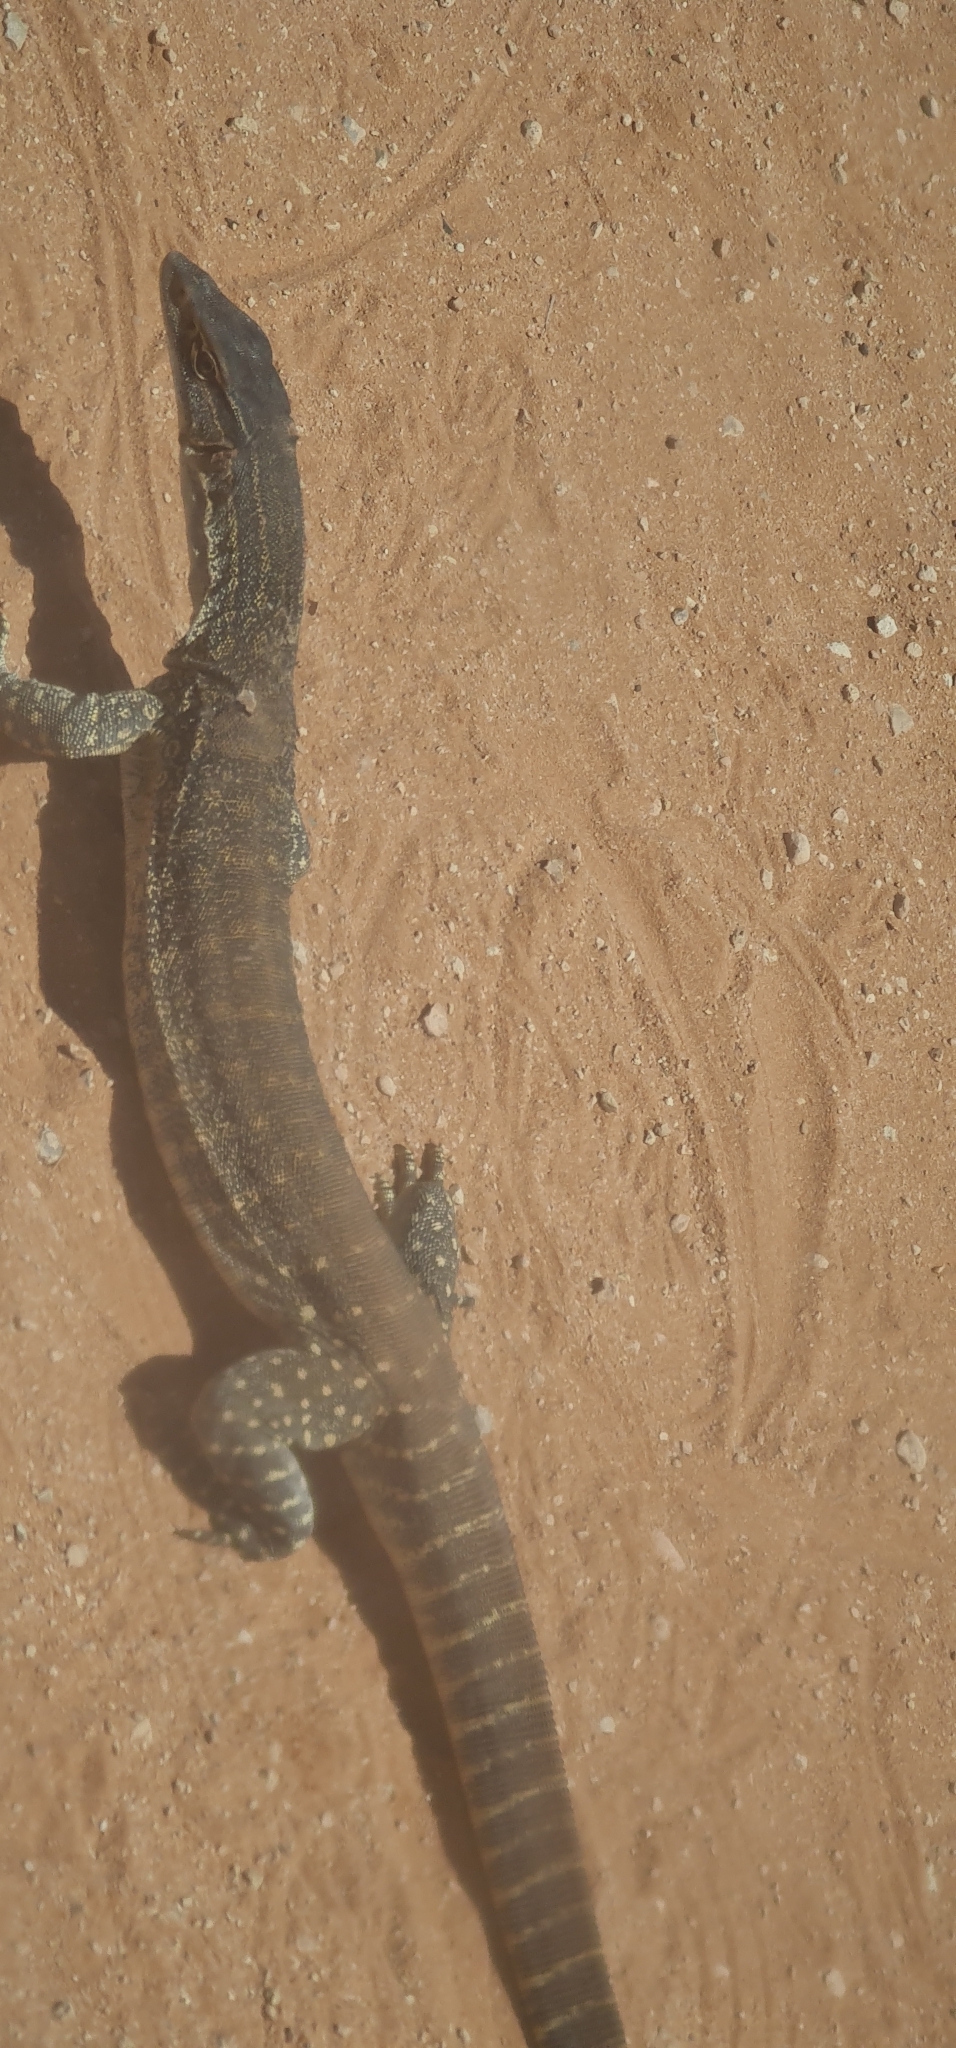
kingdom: Animalia
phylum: Chordata
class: Squamata
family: Varanidae
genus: Varanus
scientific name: Varanus gouldii
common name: Gould's goanna
